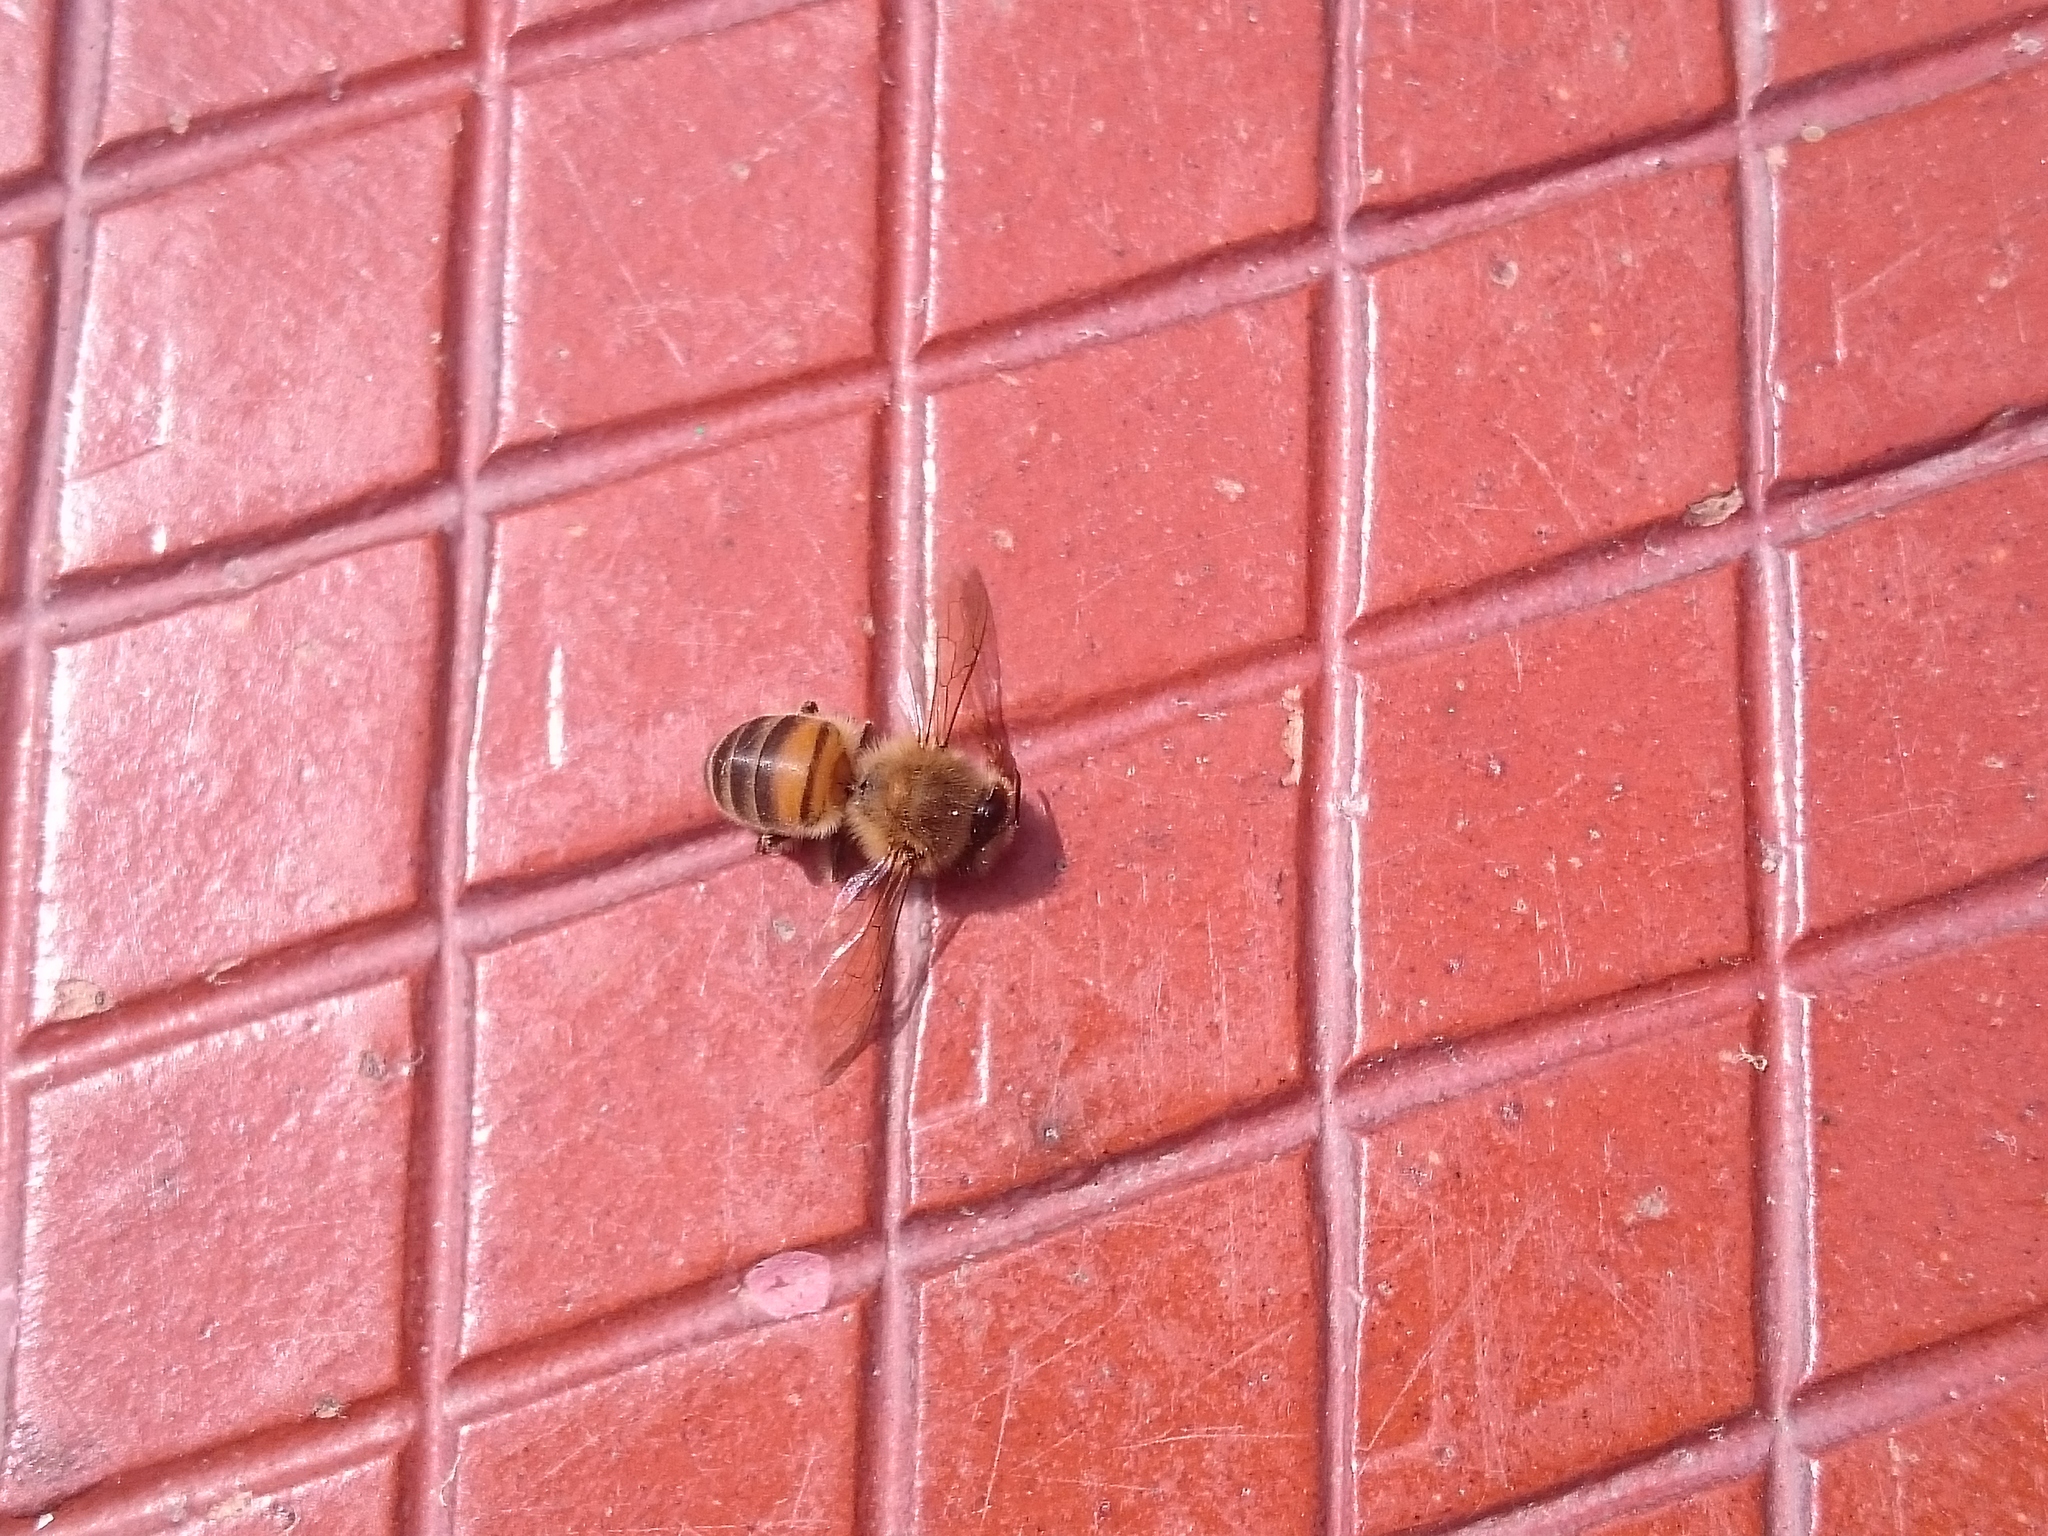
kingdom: Animalia
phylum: Arthropoda
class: Insecta
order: Hymenoptera
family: Apidae
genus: Apis
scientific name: Apis mellifera
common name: Honey bee
